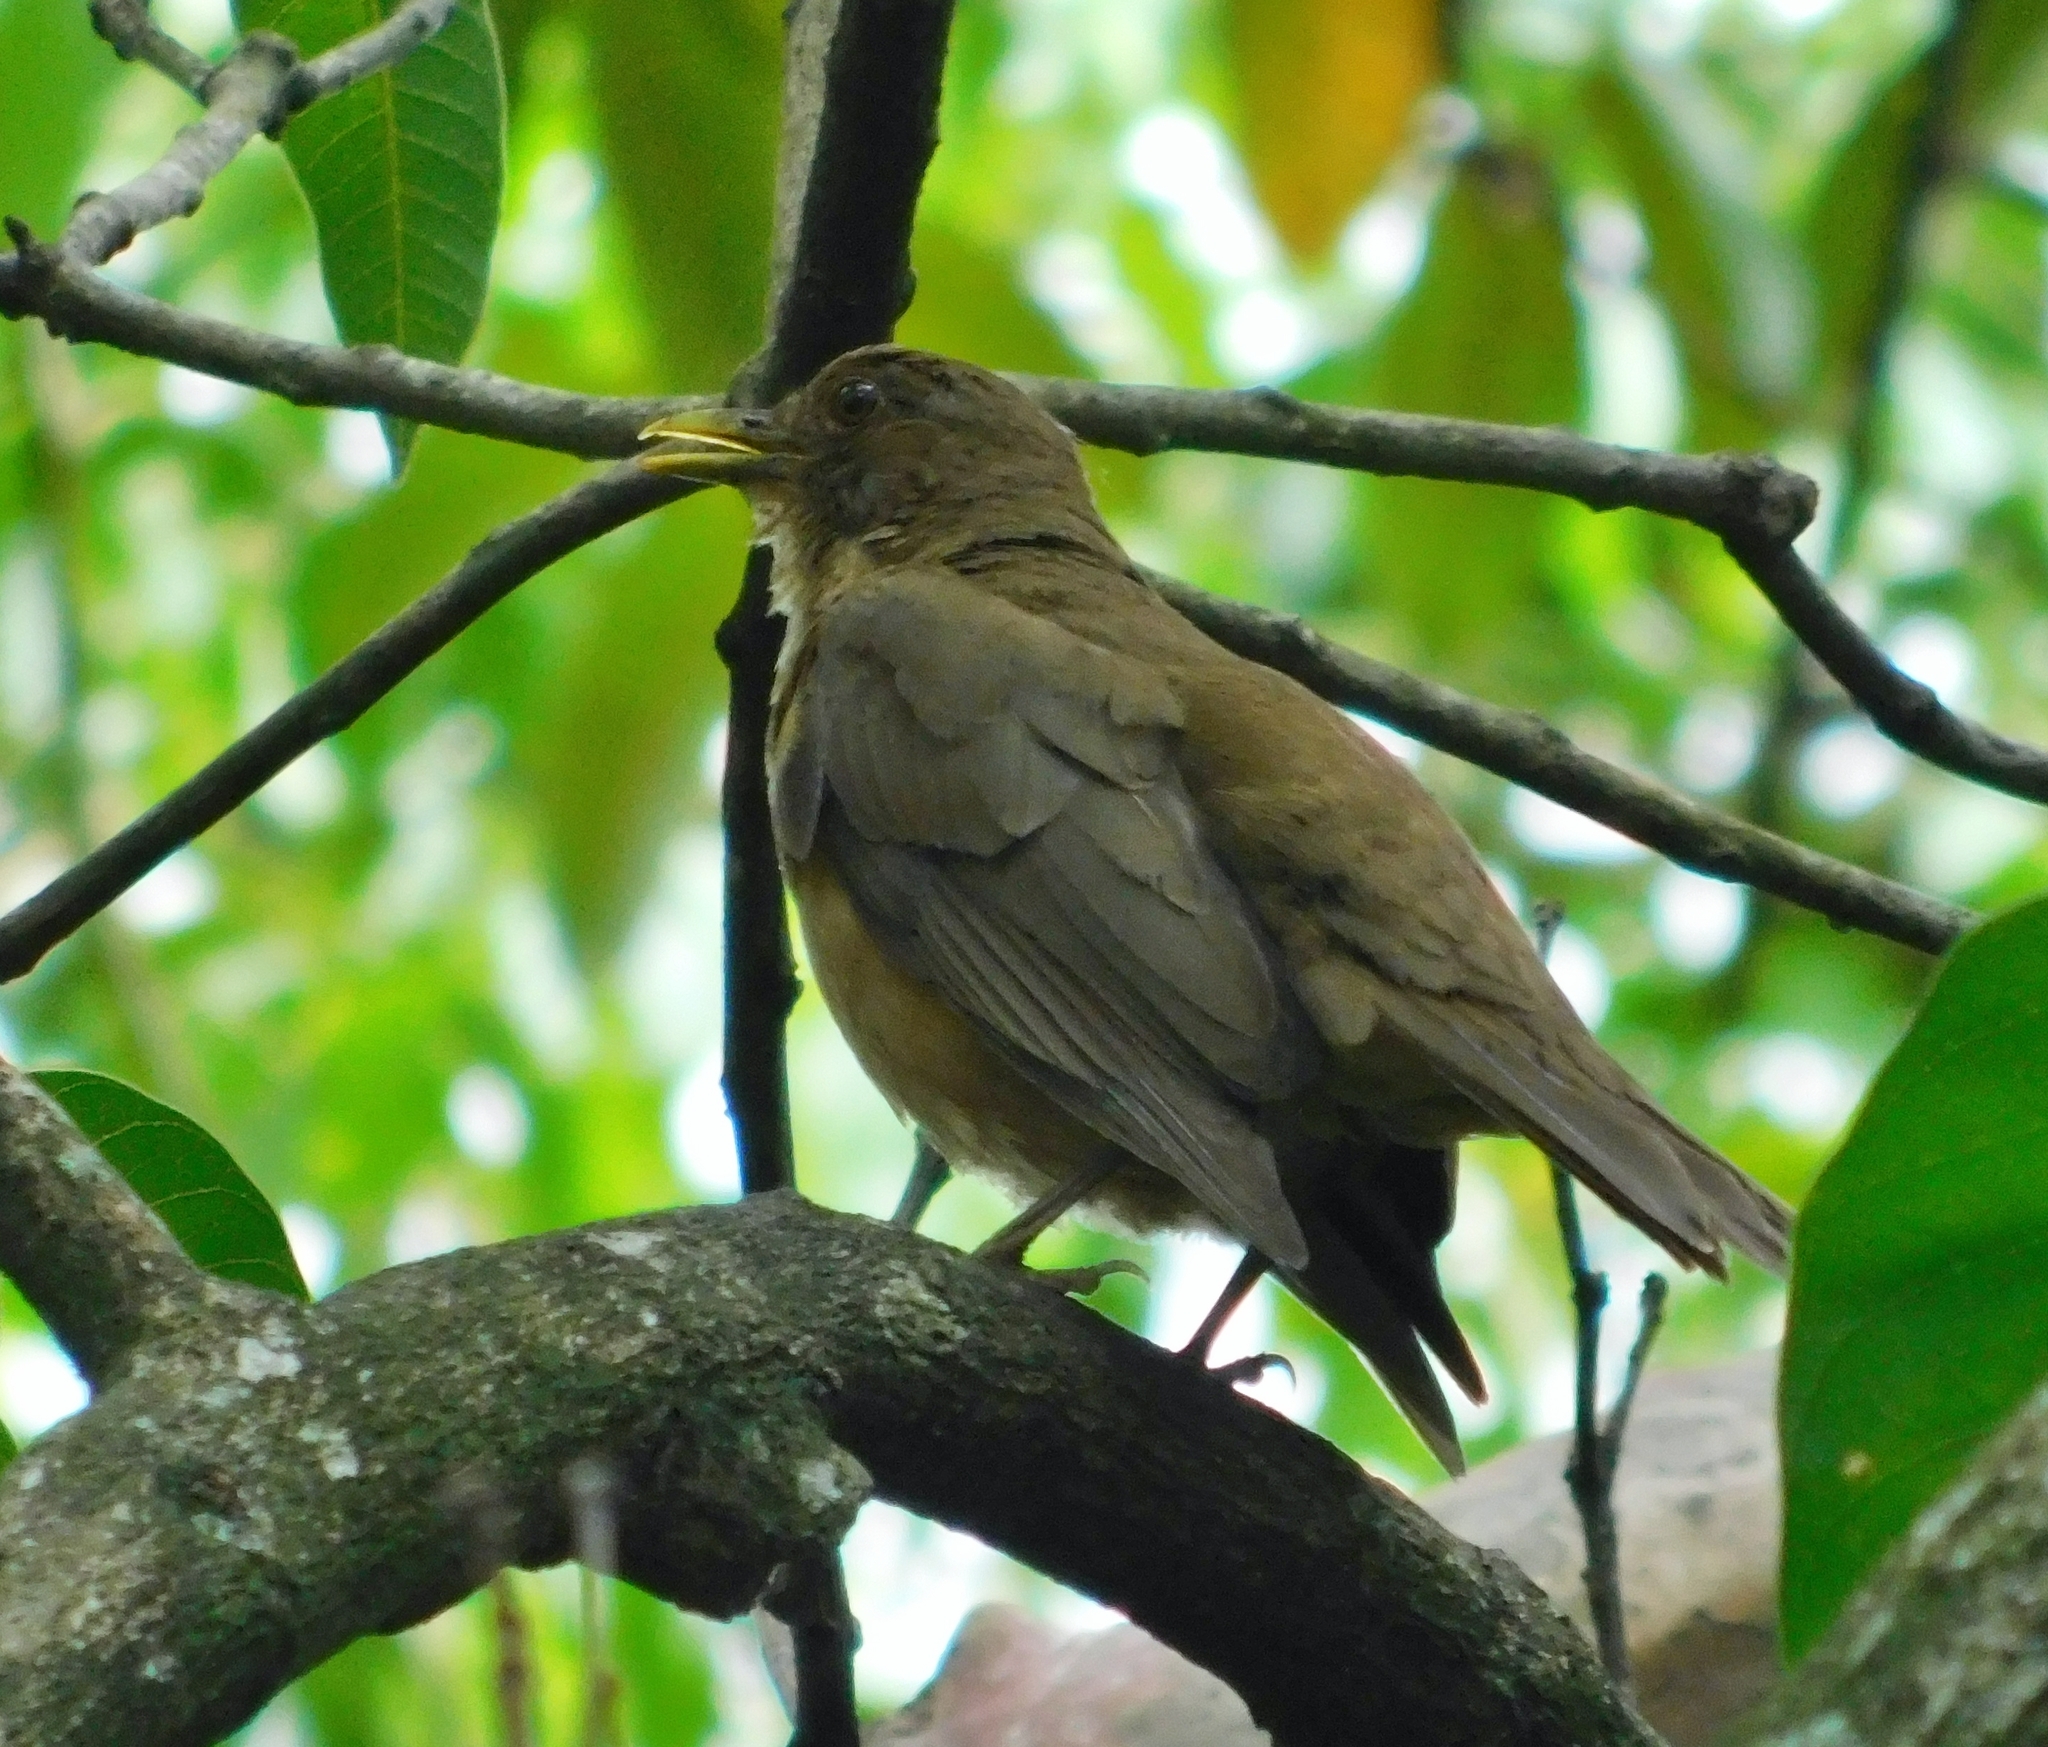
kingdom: Animalia
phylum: Chordata
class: Aves
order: Passeriformes
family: Turdidae
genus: Turdus
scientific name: Turdus grayi
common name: Clay-colored thrush
